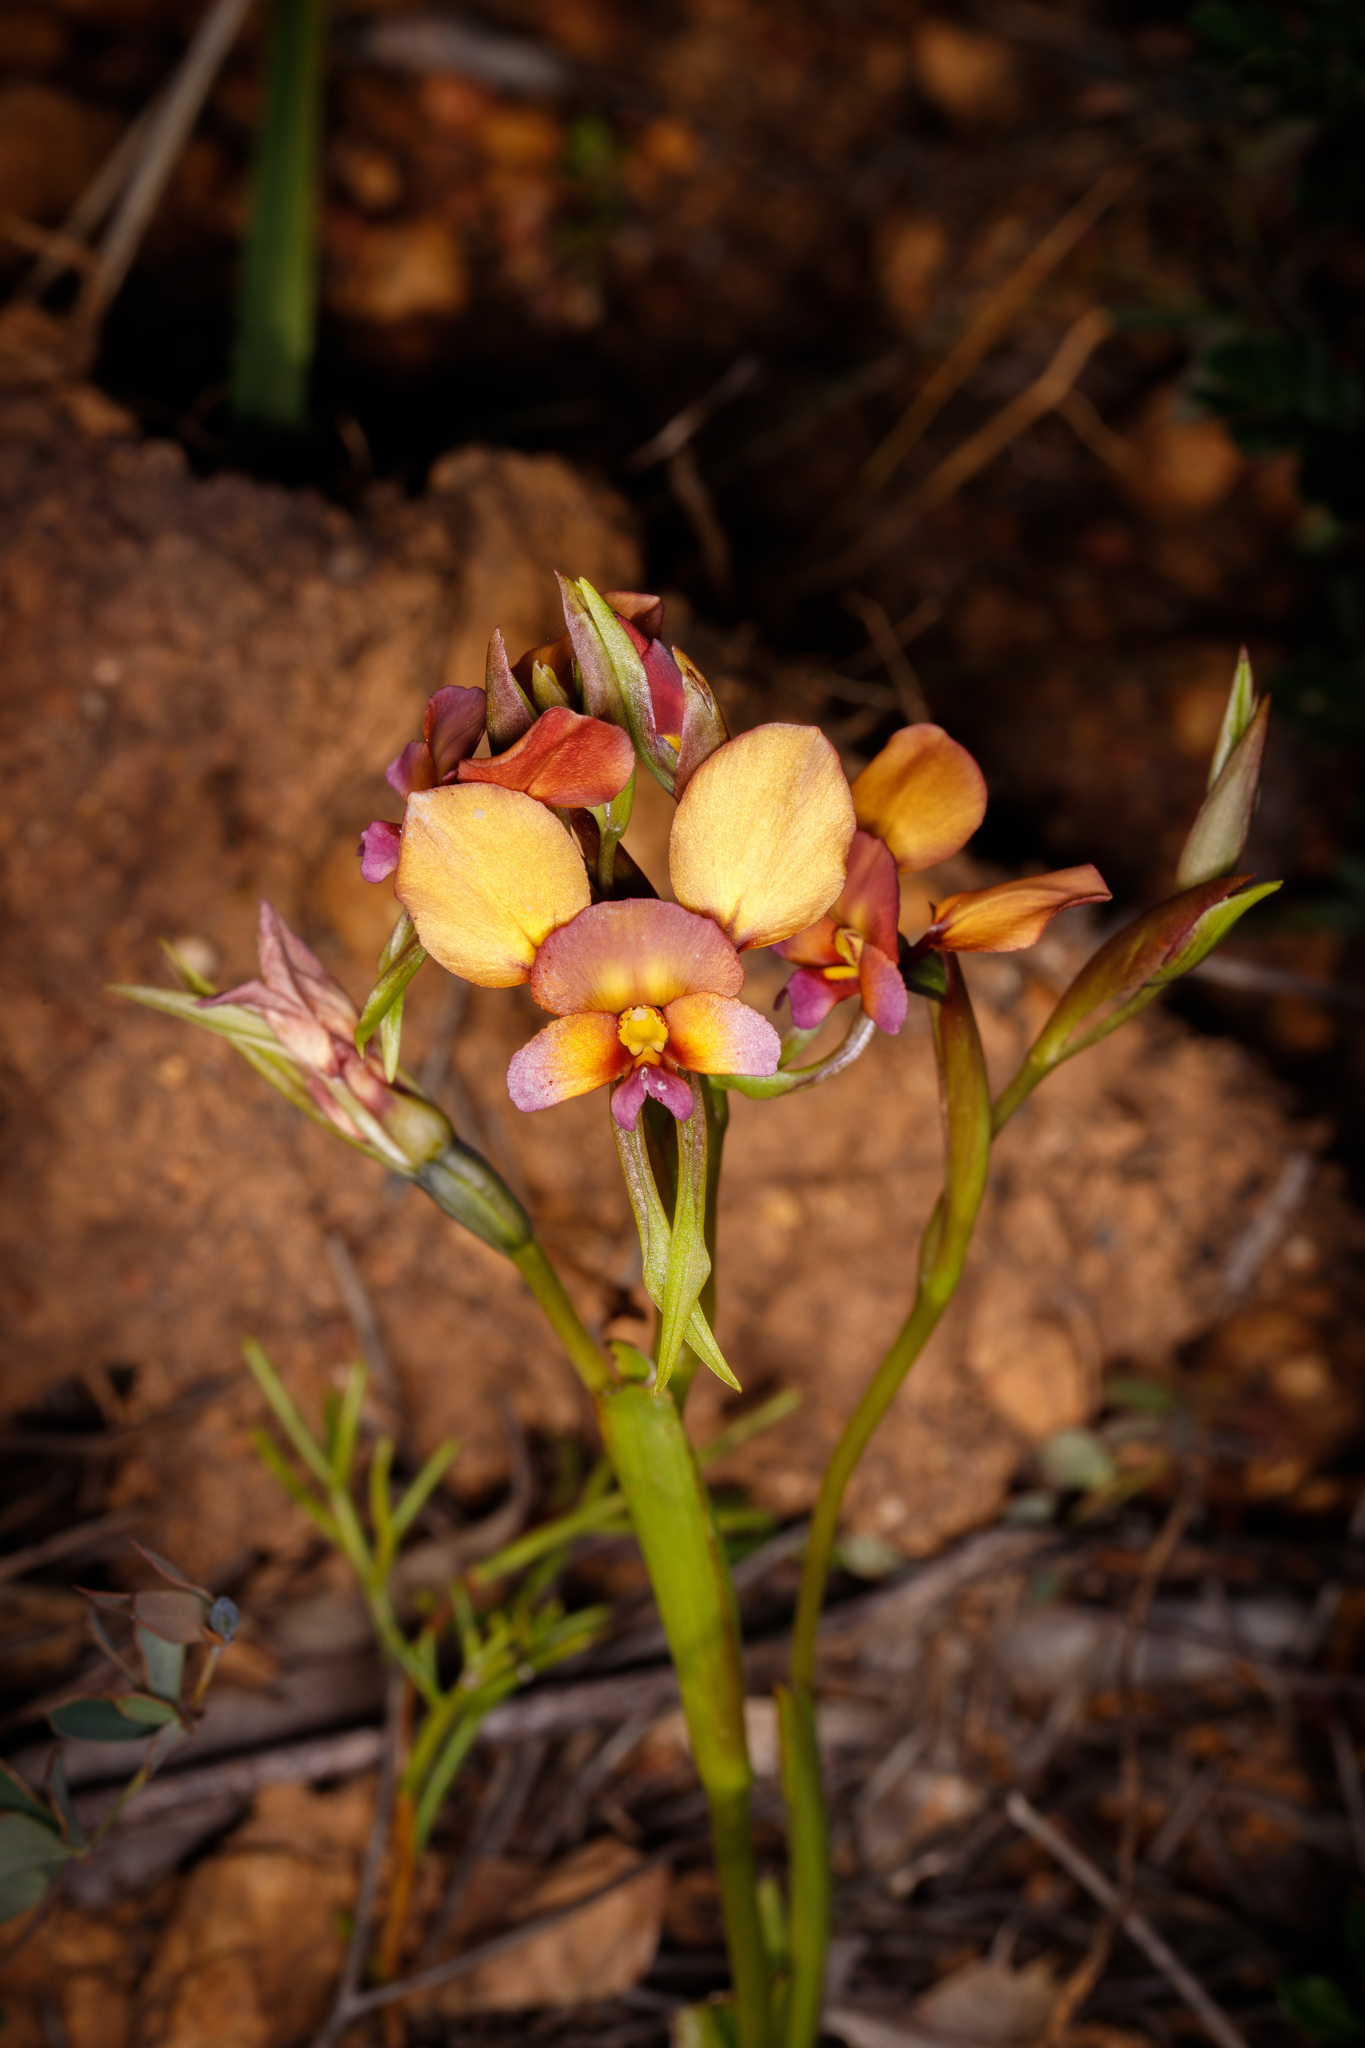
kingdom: Plantae
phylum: Tracheophyta
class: Liliopsida
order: Asparagales
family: Orchidaceae
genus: Diuris
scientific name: Diuris longifolia
